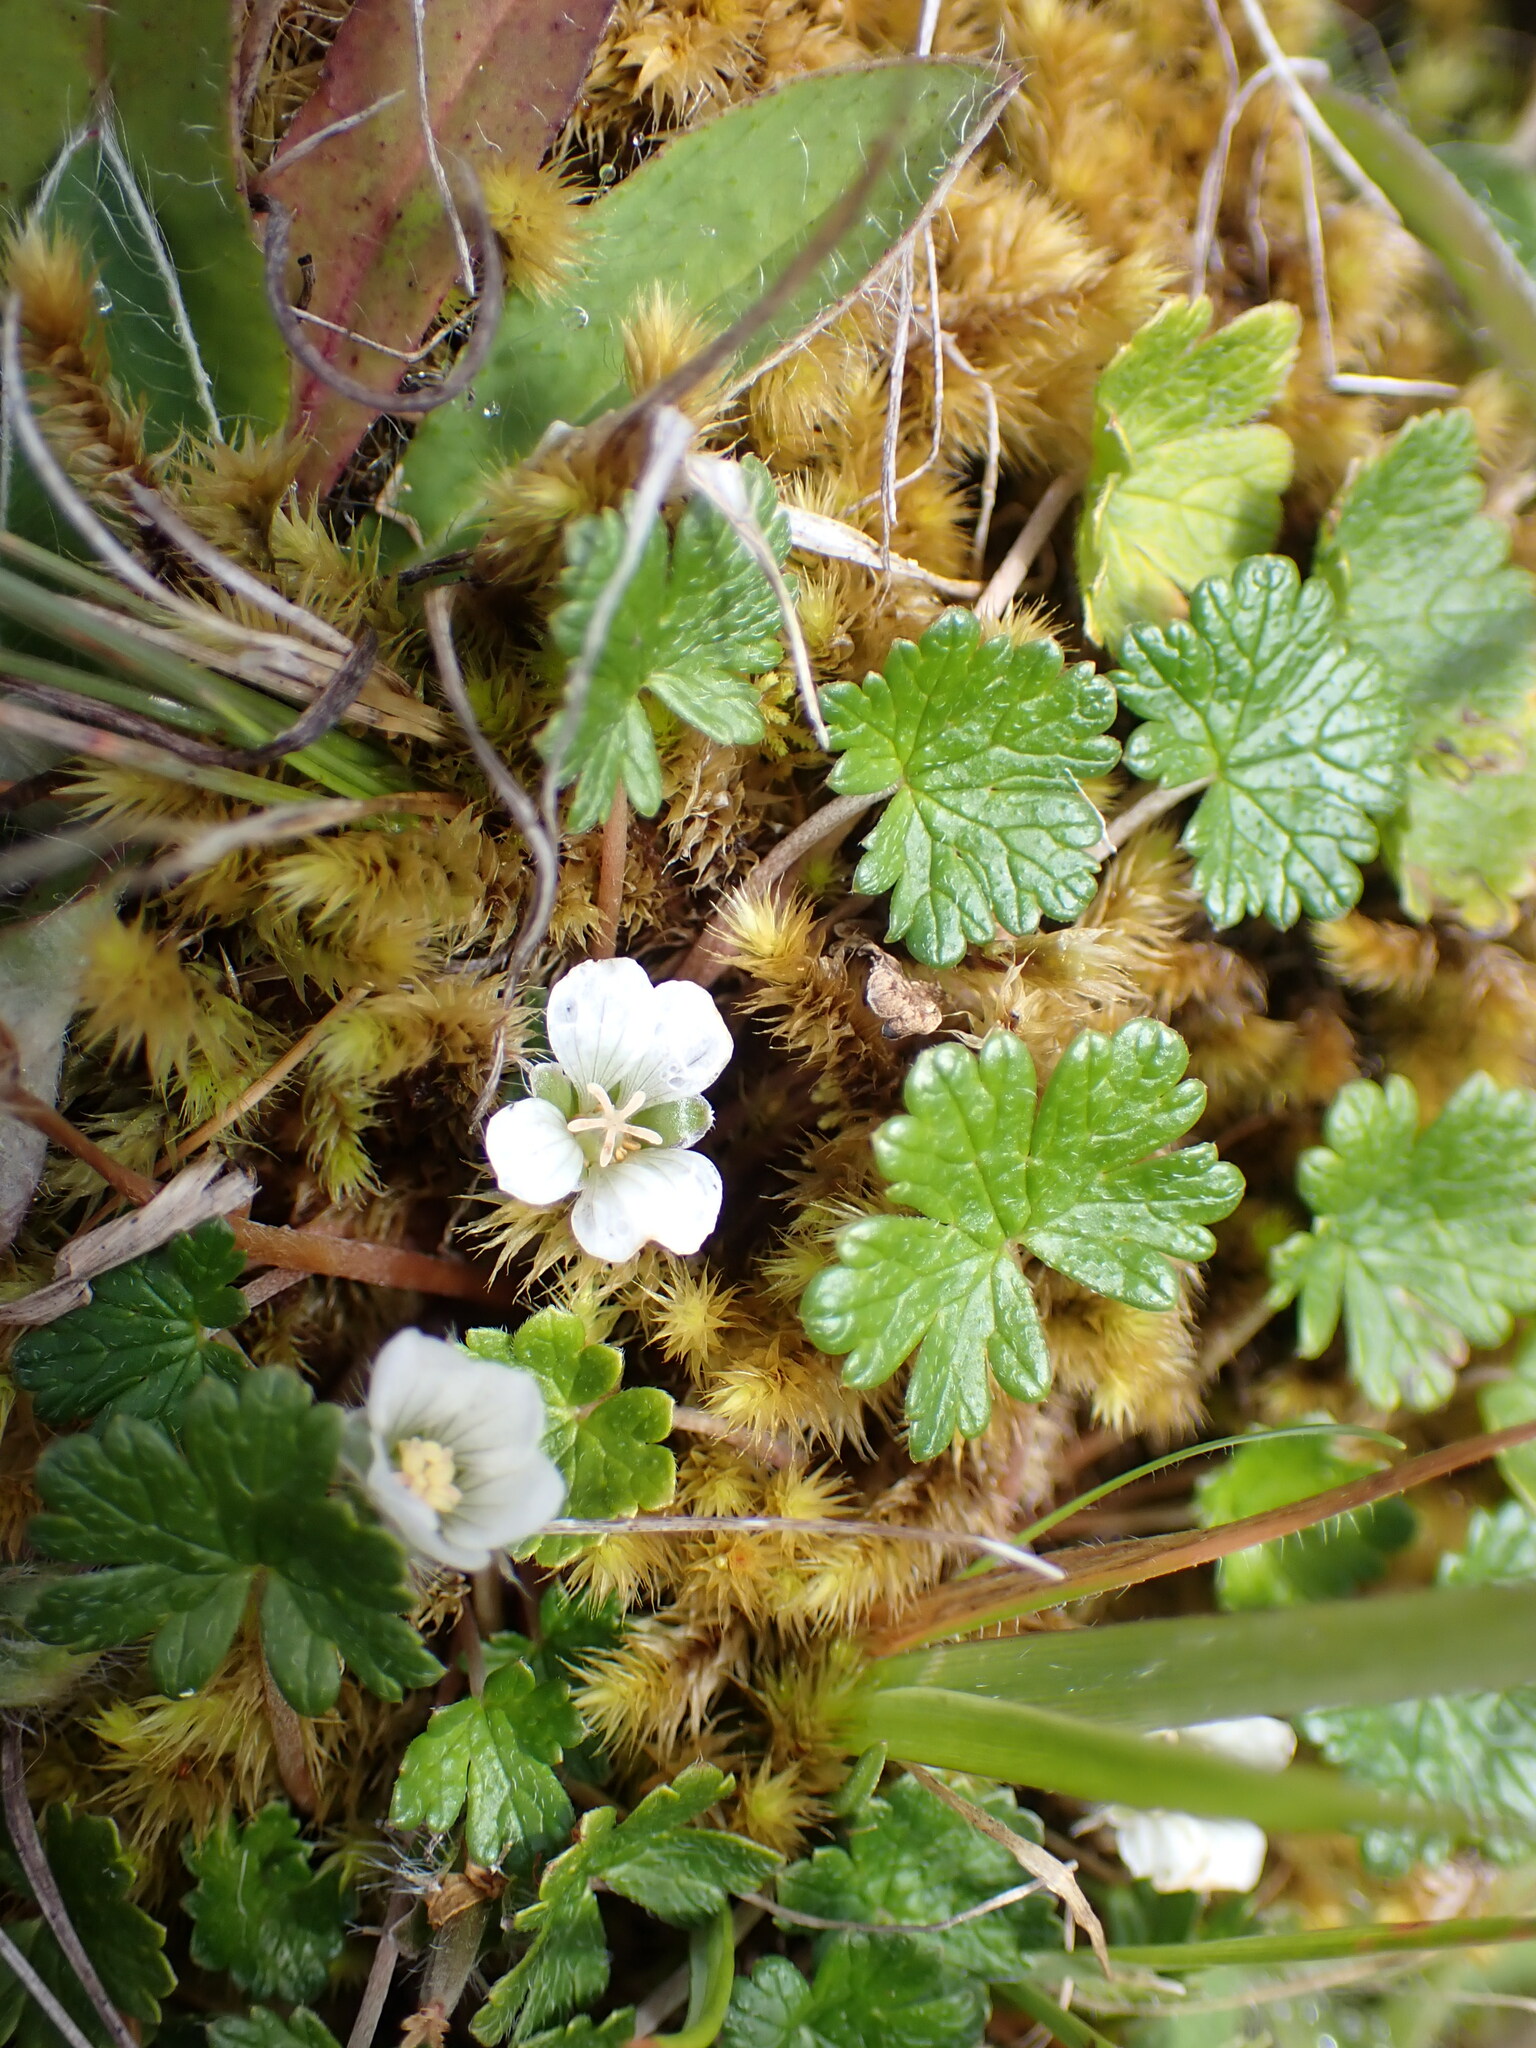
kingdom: Plantae
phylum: Tracheophyta
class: Magnoliopsida
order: Geraniales
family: Geraniaceae
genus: Geranium
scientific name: Geranium brevicaule
